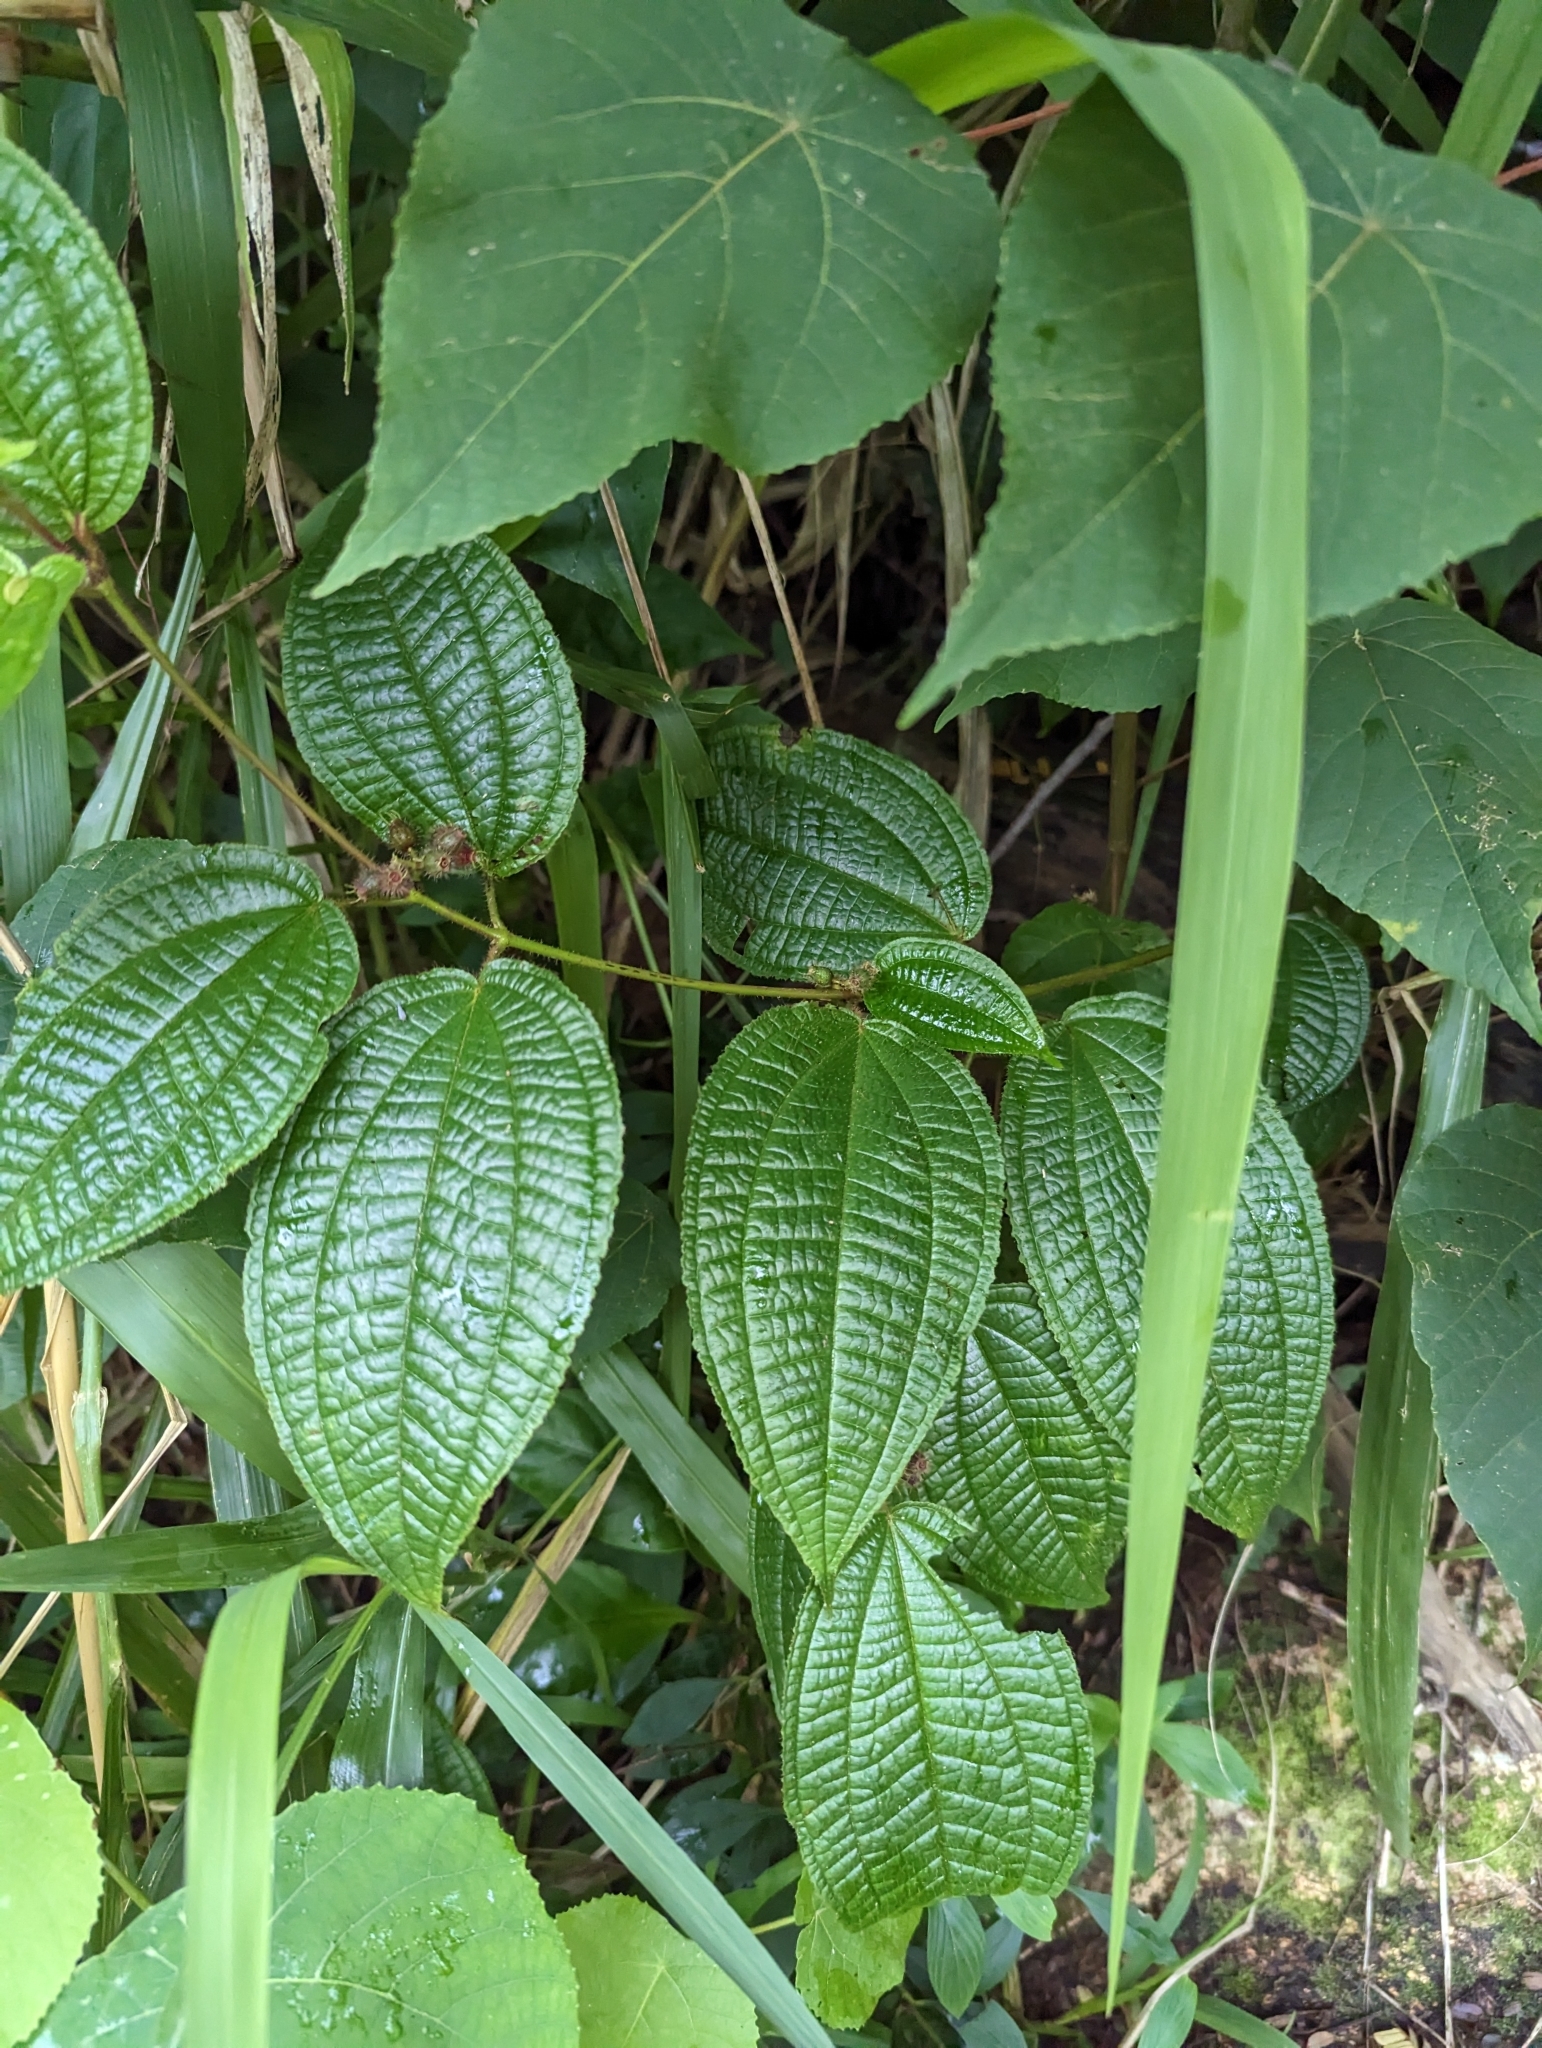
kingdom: Plantae
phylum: Tracheophyta
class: Magnoliopsida
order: Myrtales
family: Melastomataceae
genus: Miconia
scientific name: Miconia crenata
